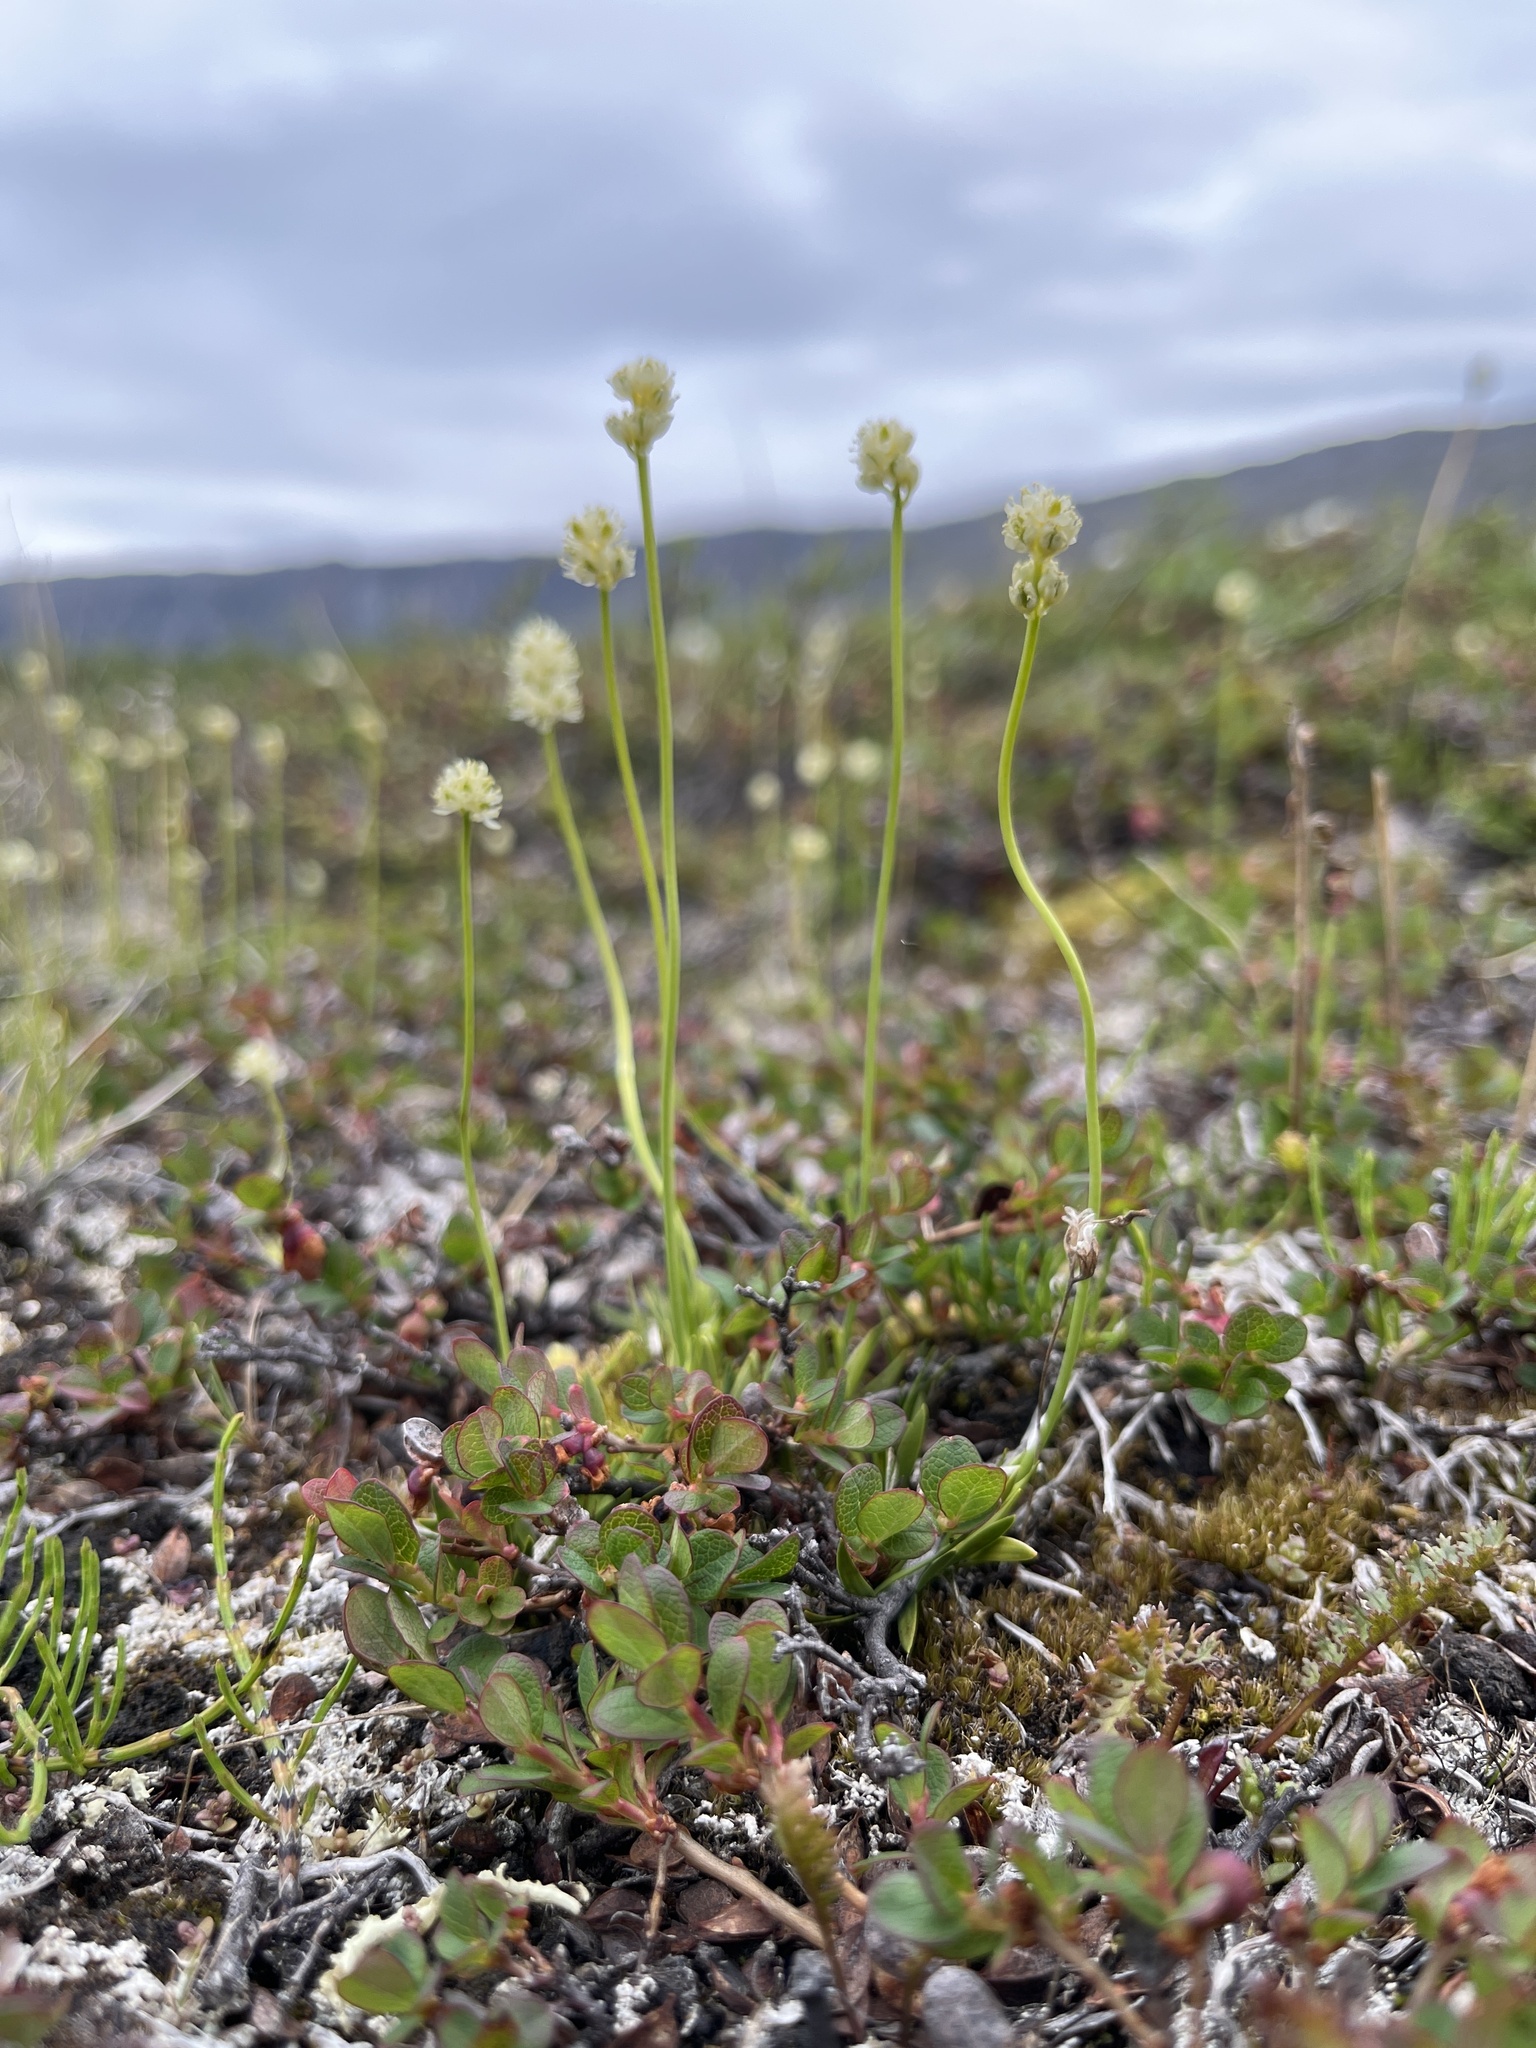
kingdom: Plantae
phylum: Tracheophyta
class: Liliopsida
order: Alismatales
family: Tofieldiaceae
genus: Tofieldia
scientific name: Tofieldia pusilla
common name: Scottish false asphodel
